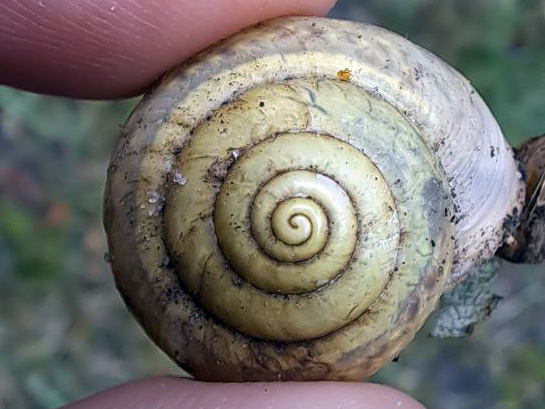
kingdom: Animalia
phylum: Mollusca
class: Gastropoda
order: Stylommatophora
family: Camaenidae
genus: Fruticicola
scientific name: Fruticicola fruticum
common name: Bush snail
